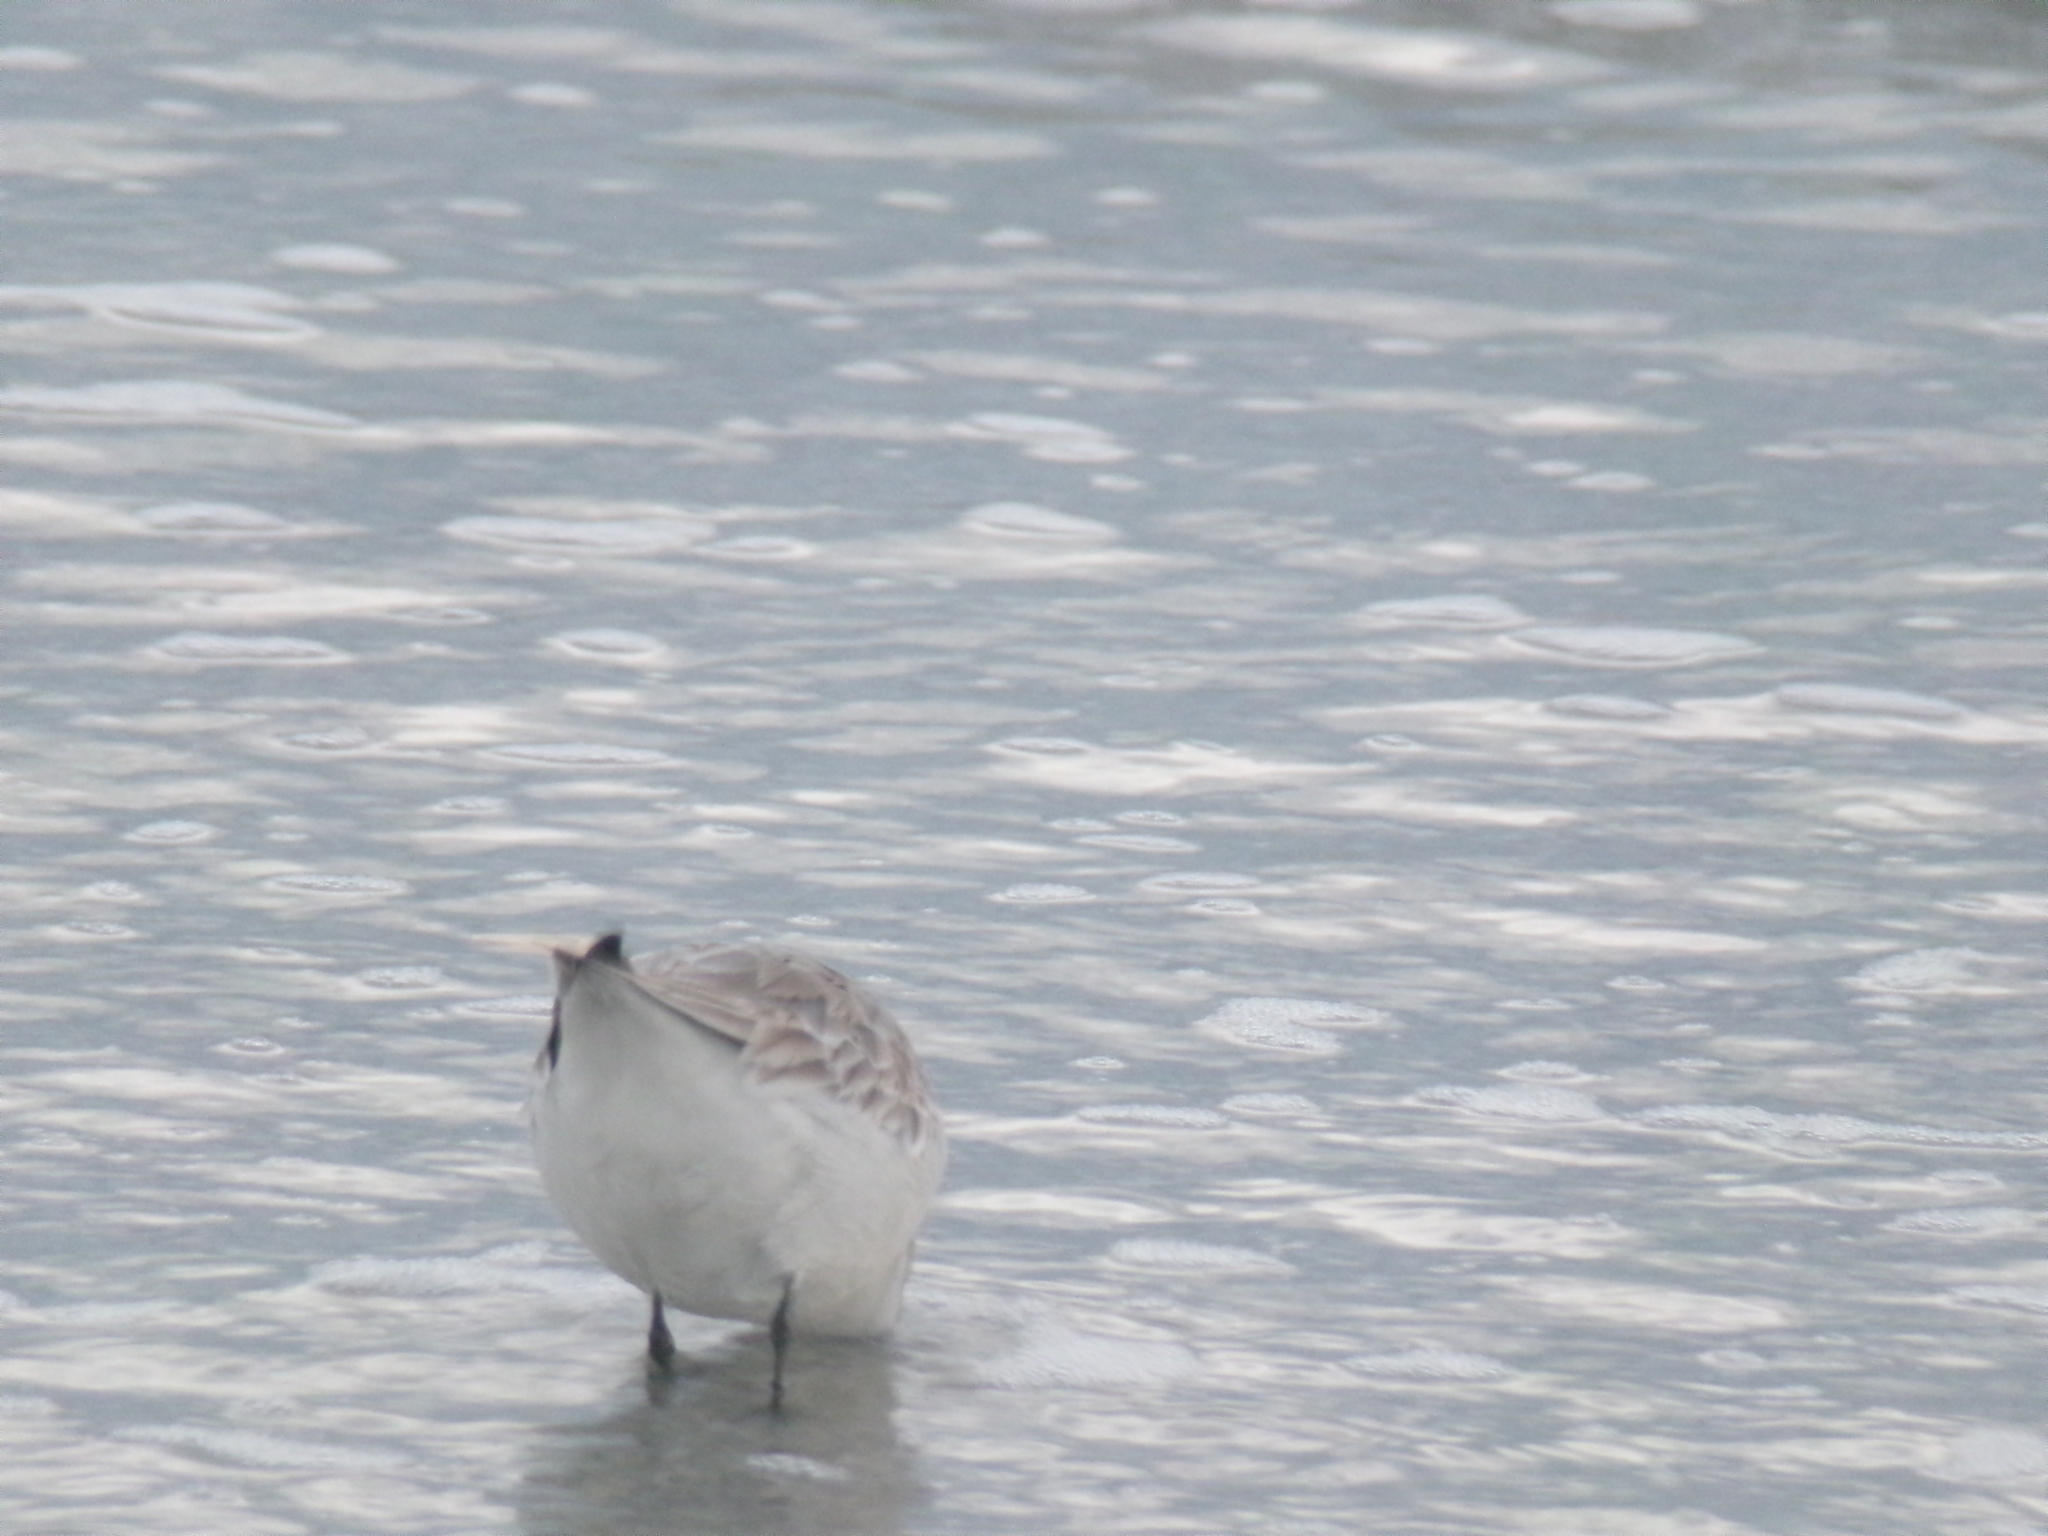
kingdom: Animalia
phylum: Chordata
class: Aves
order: Charadriiformes
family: Scolopacidae
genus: Calidris
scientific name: Calidris alba
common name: Sanderling
